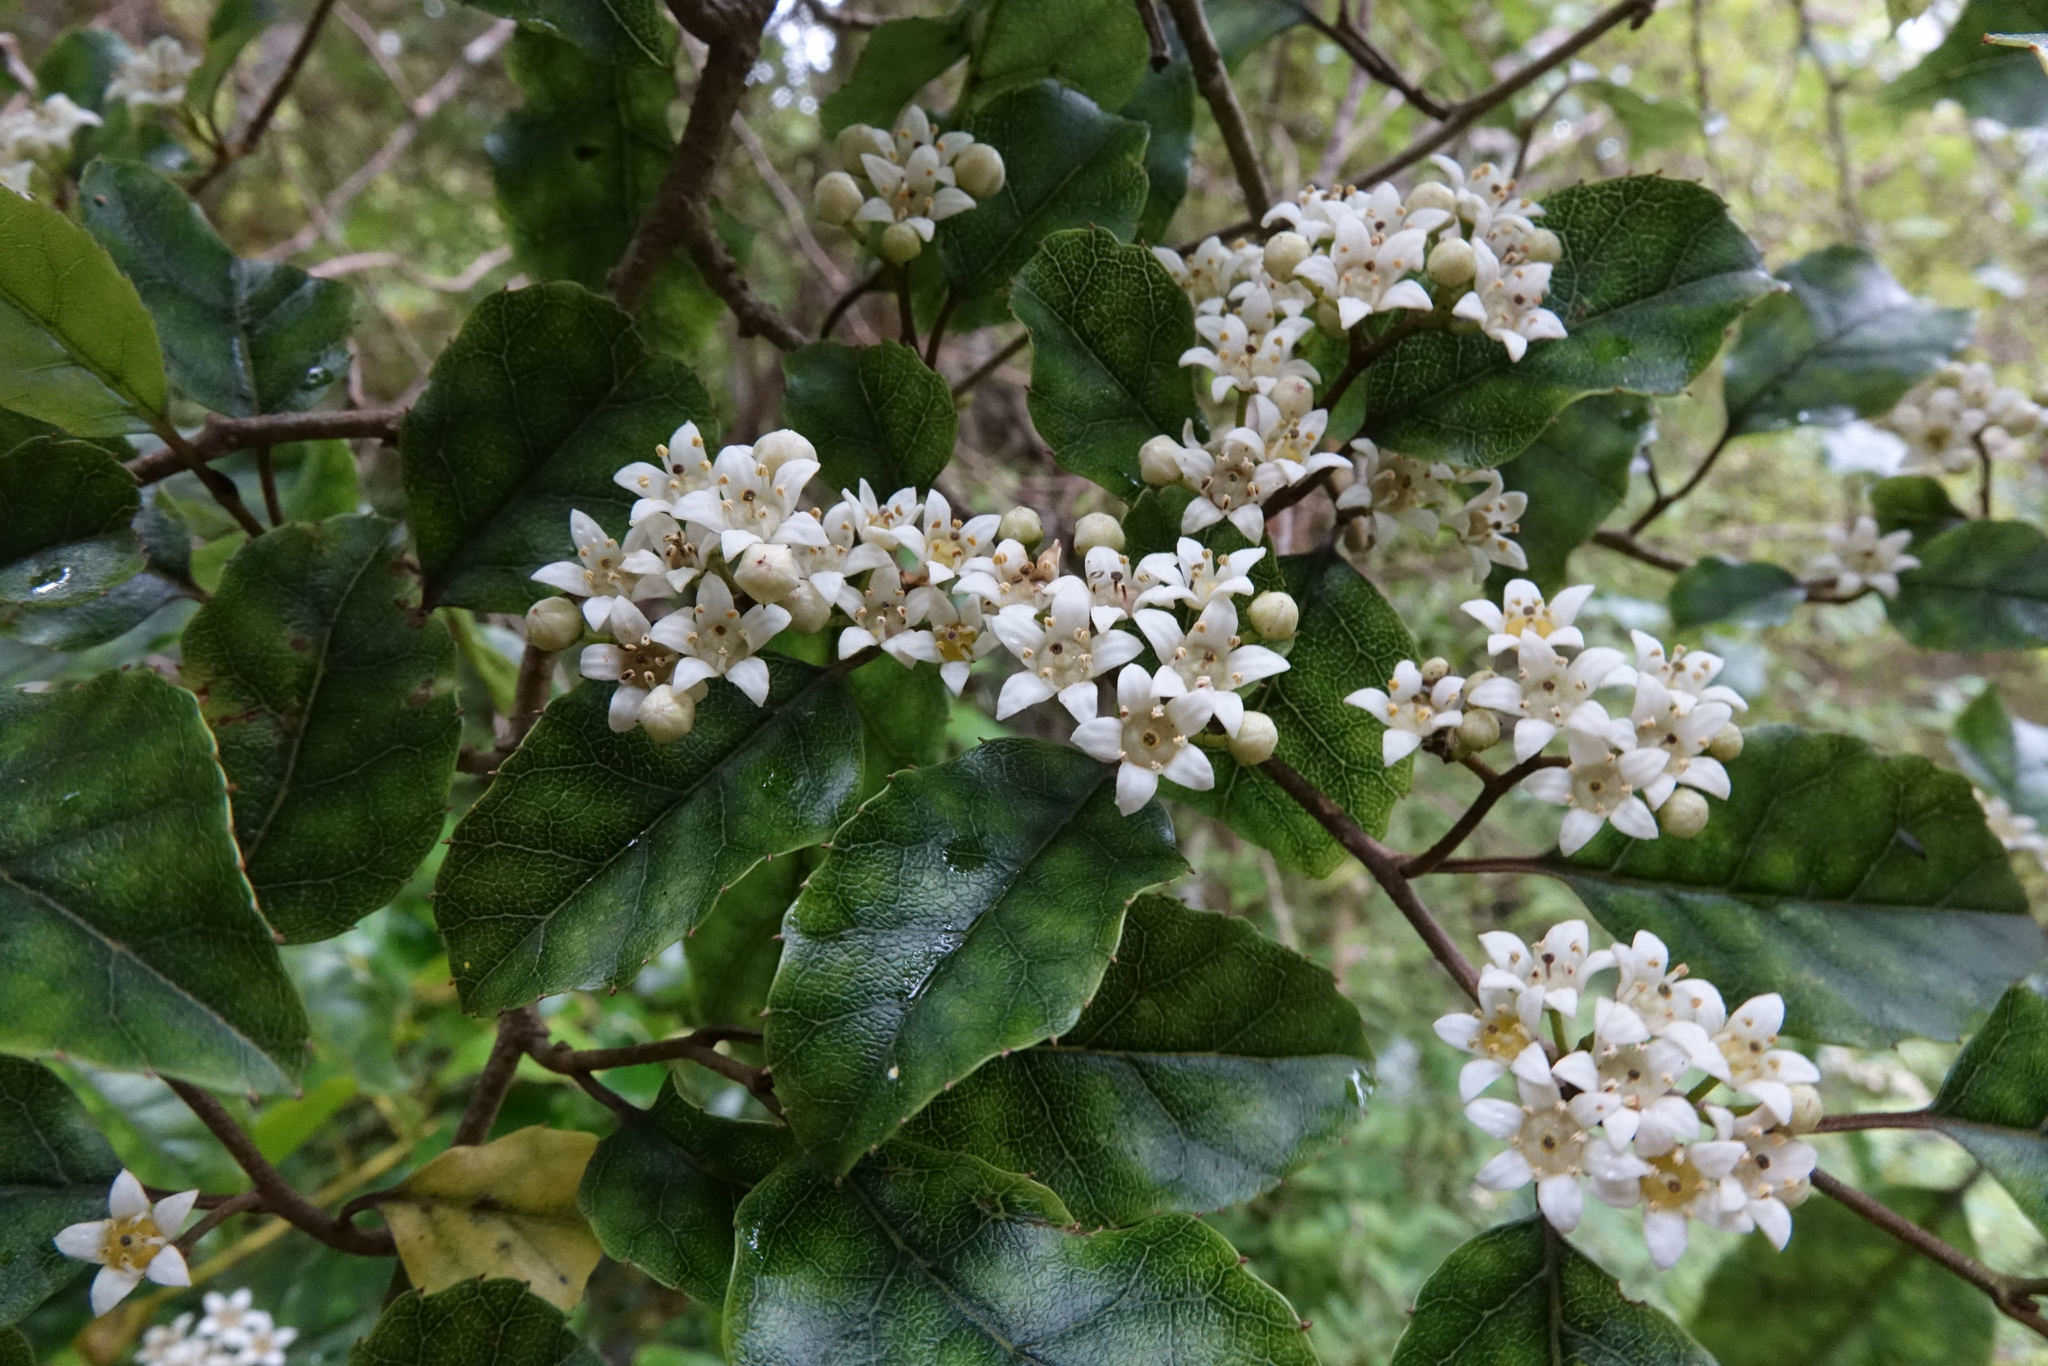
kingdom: Plantae
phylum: Tracheophyta
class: Magnoliopsida
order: Asterales
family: Rousseaceae
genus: Carpodetus
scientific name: Carpodetus serratus
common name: White mapau
